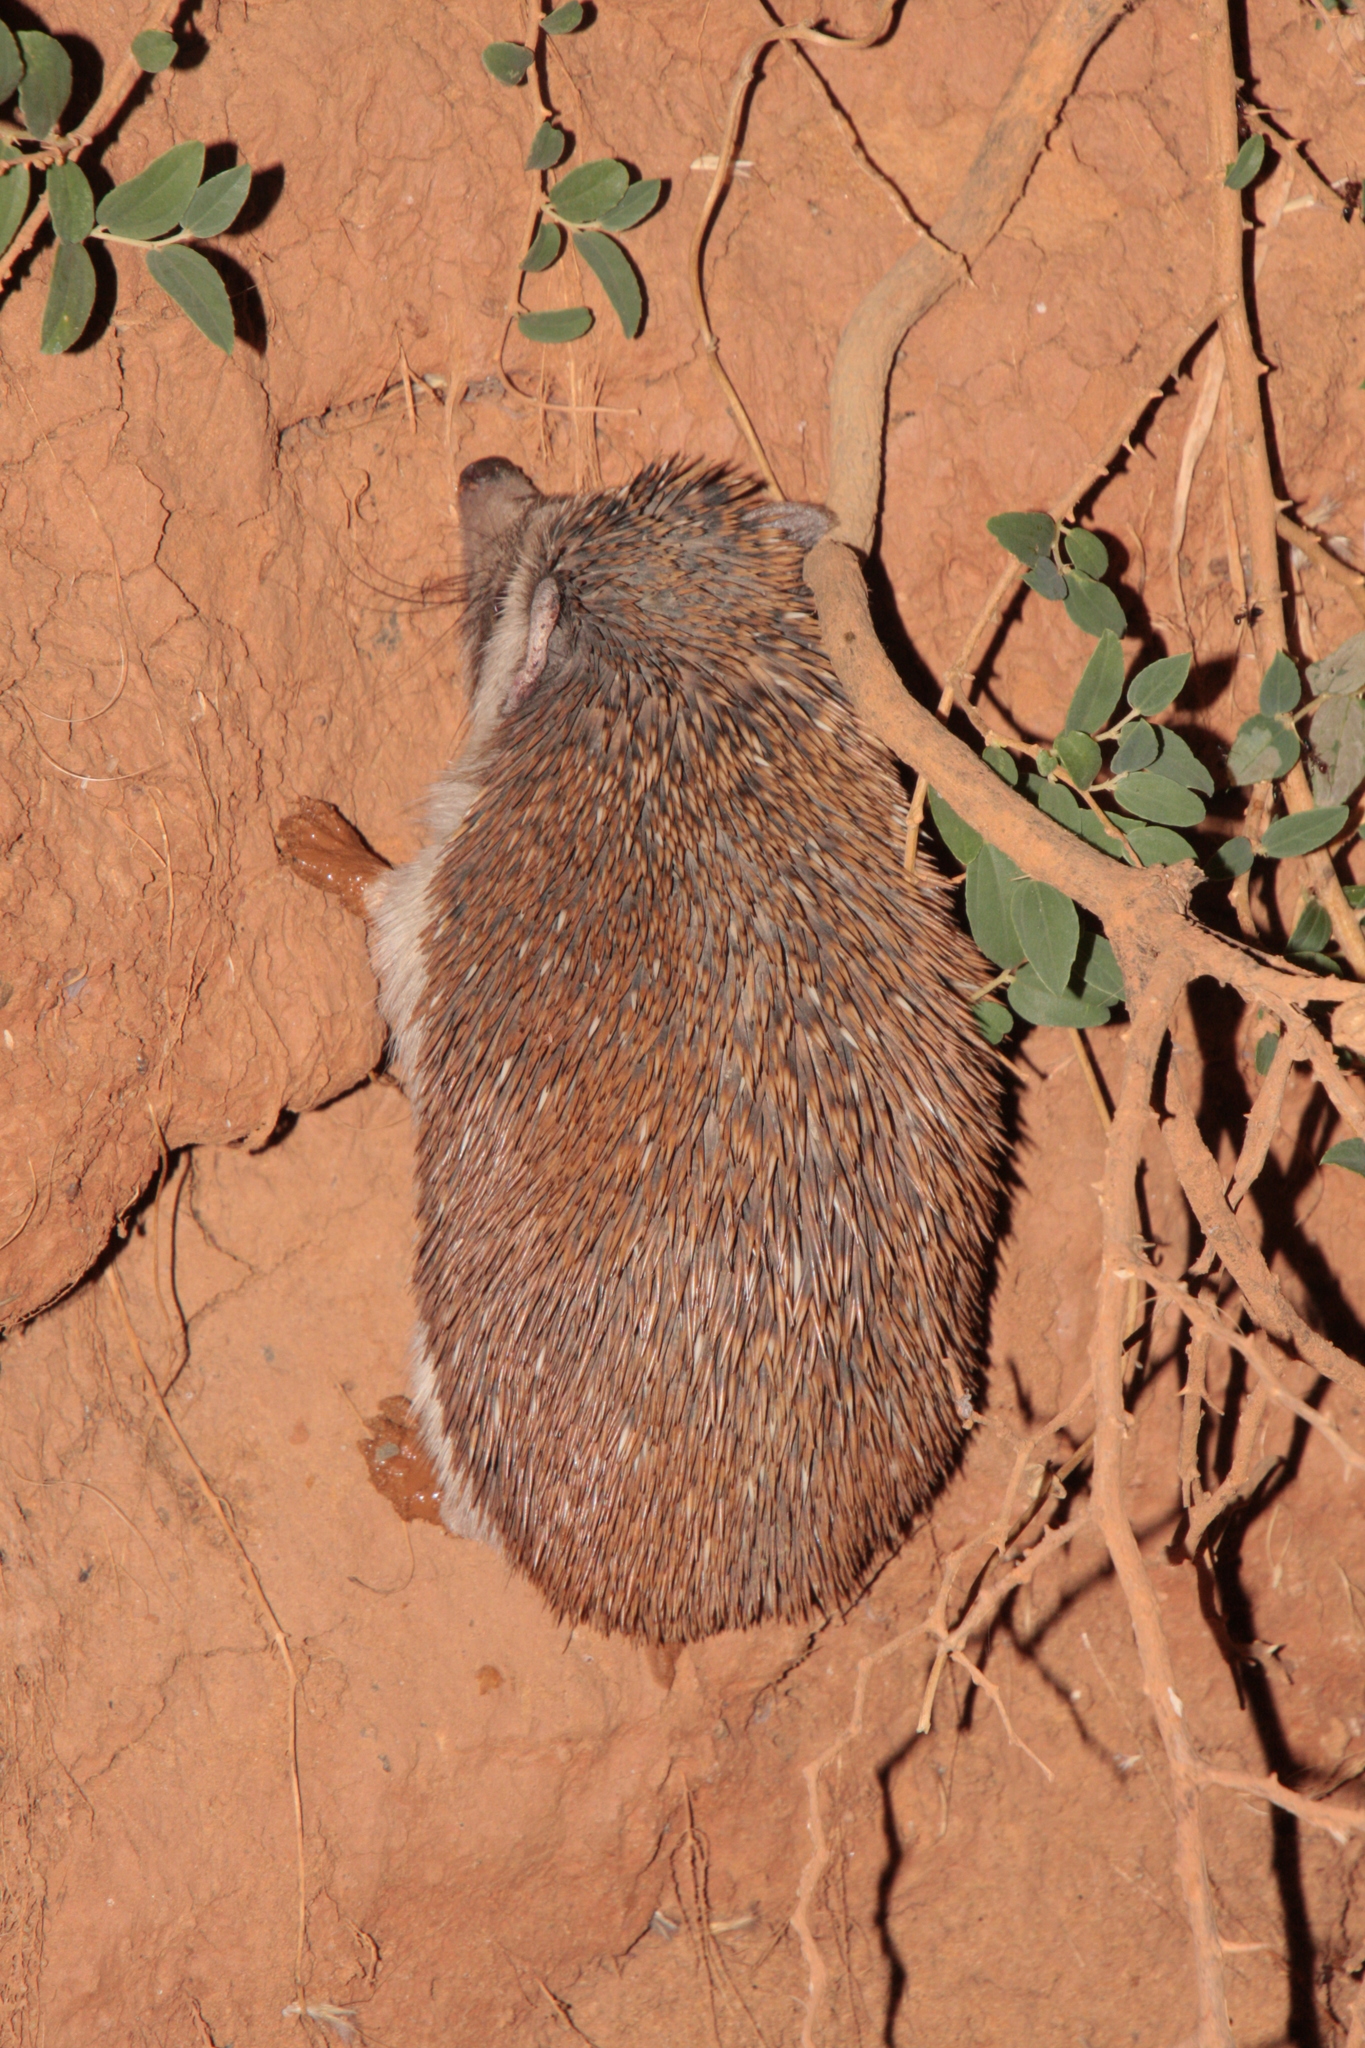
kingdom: Animalia
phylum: Chordata
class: Mammalia
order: Erinaceomorpha
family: Erinaceidae
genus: Atelerix
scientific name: Atelerix albiventris
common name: Four-toed hedgehog
